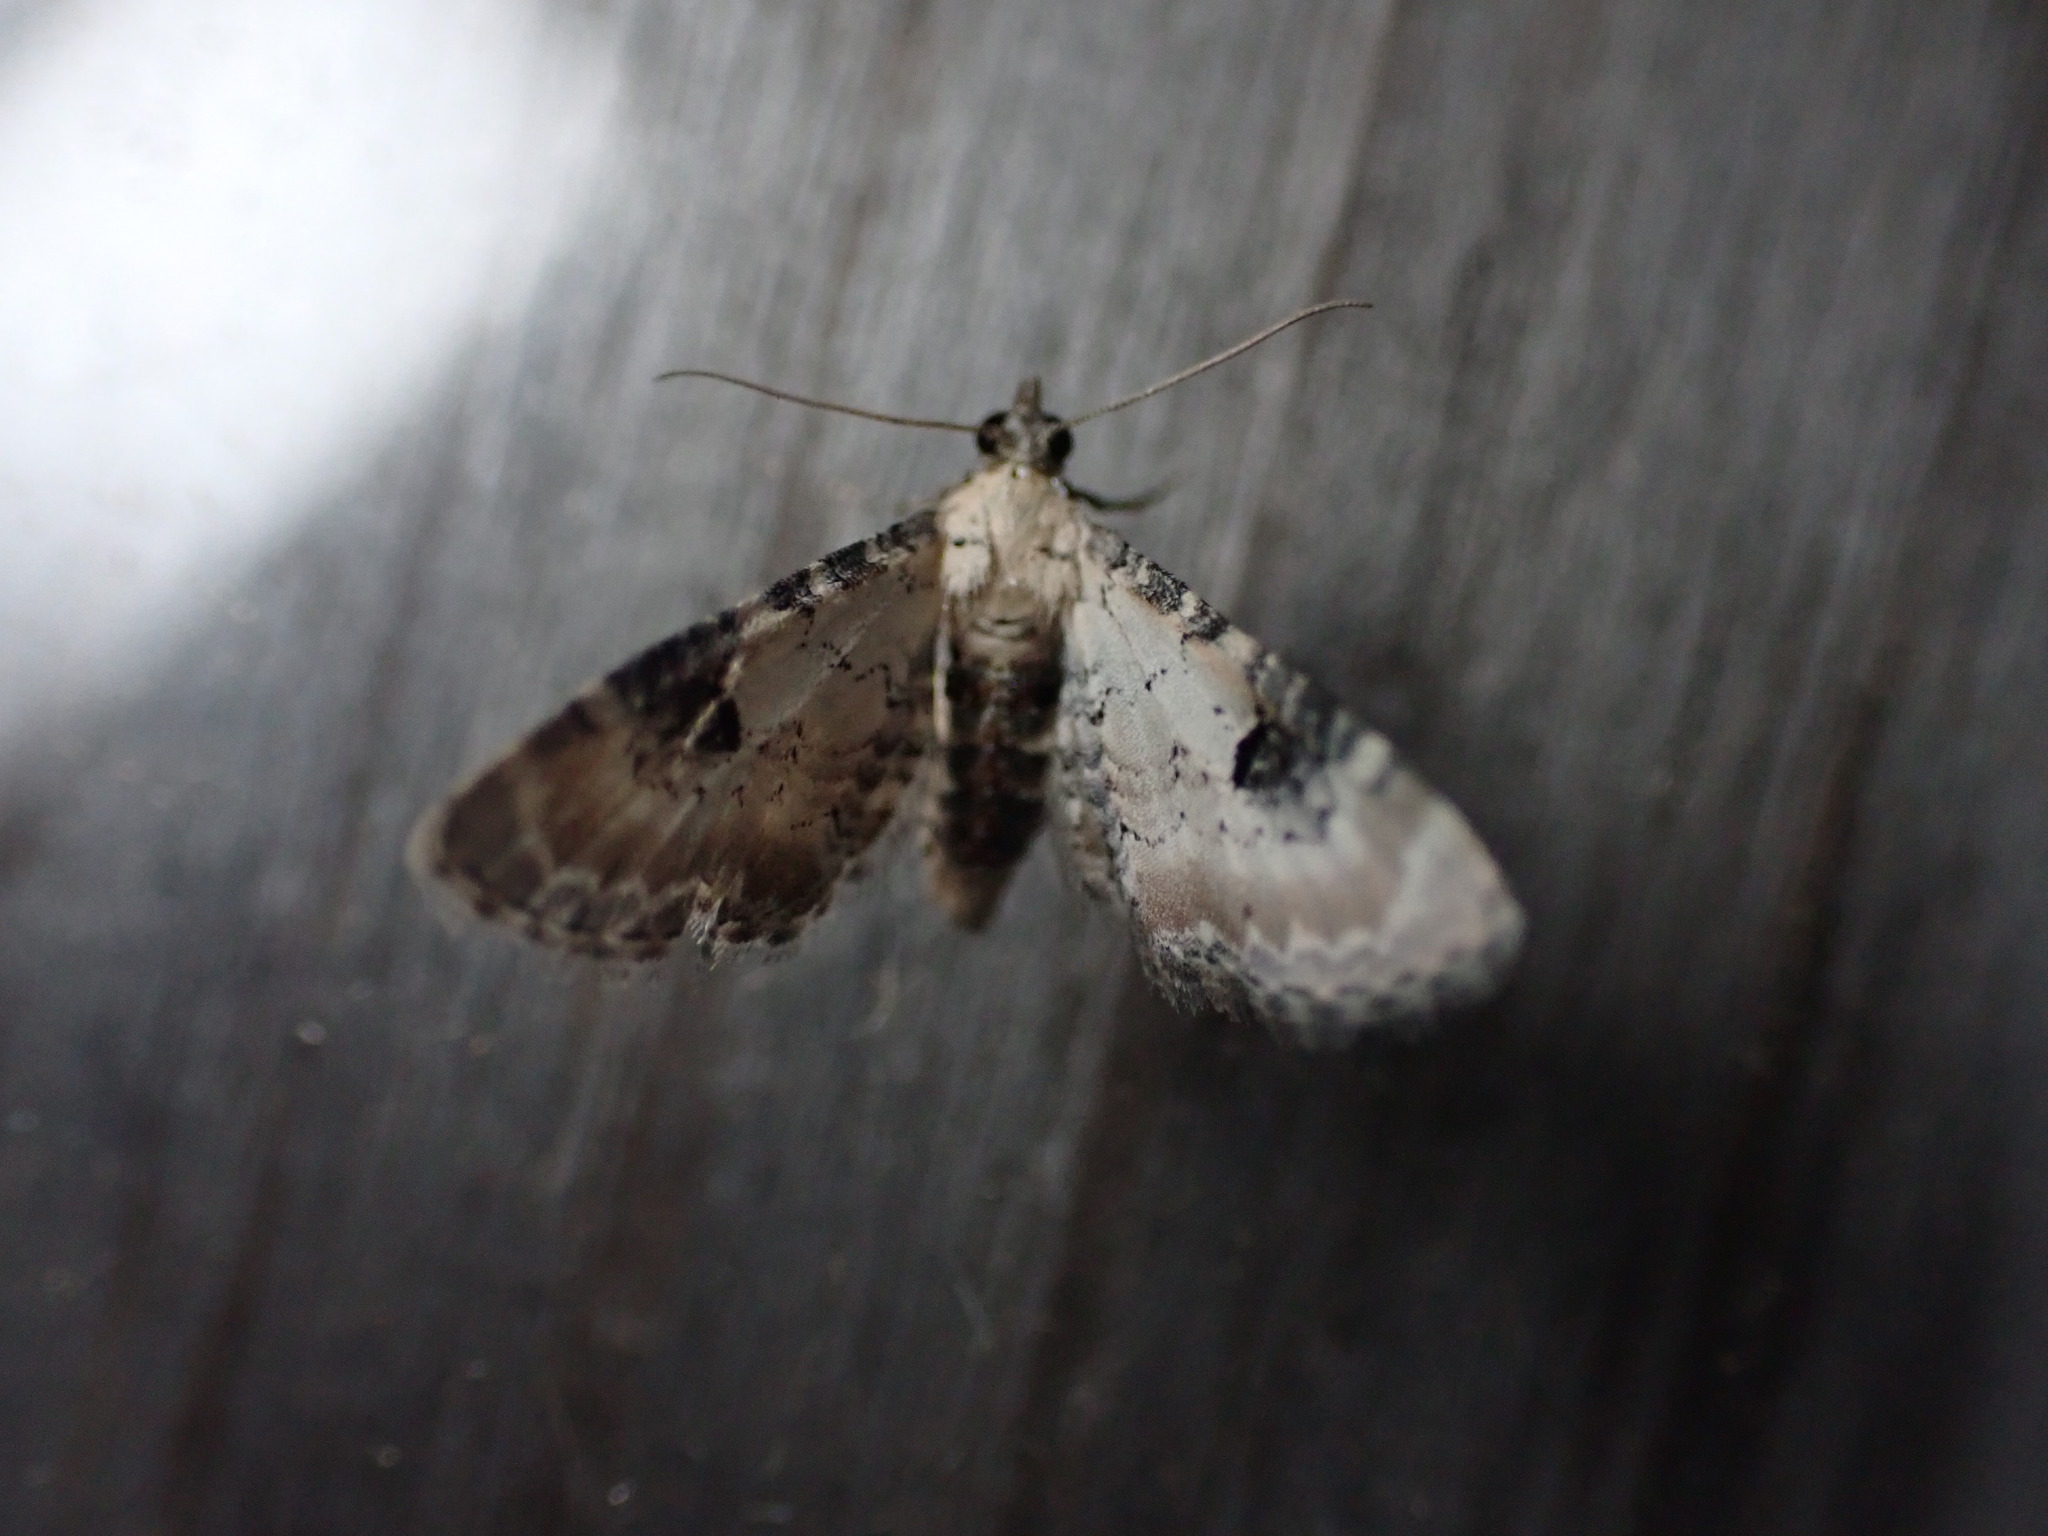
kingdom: Animalia
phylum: Arthropoda
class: Insecta
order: Lepidoptera
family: Geometridae
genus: Eupithecia
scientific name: Eupithecia centaureata
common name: Lime-speck pug
